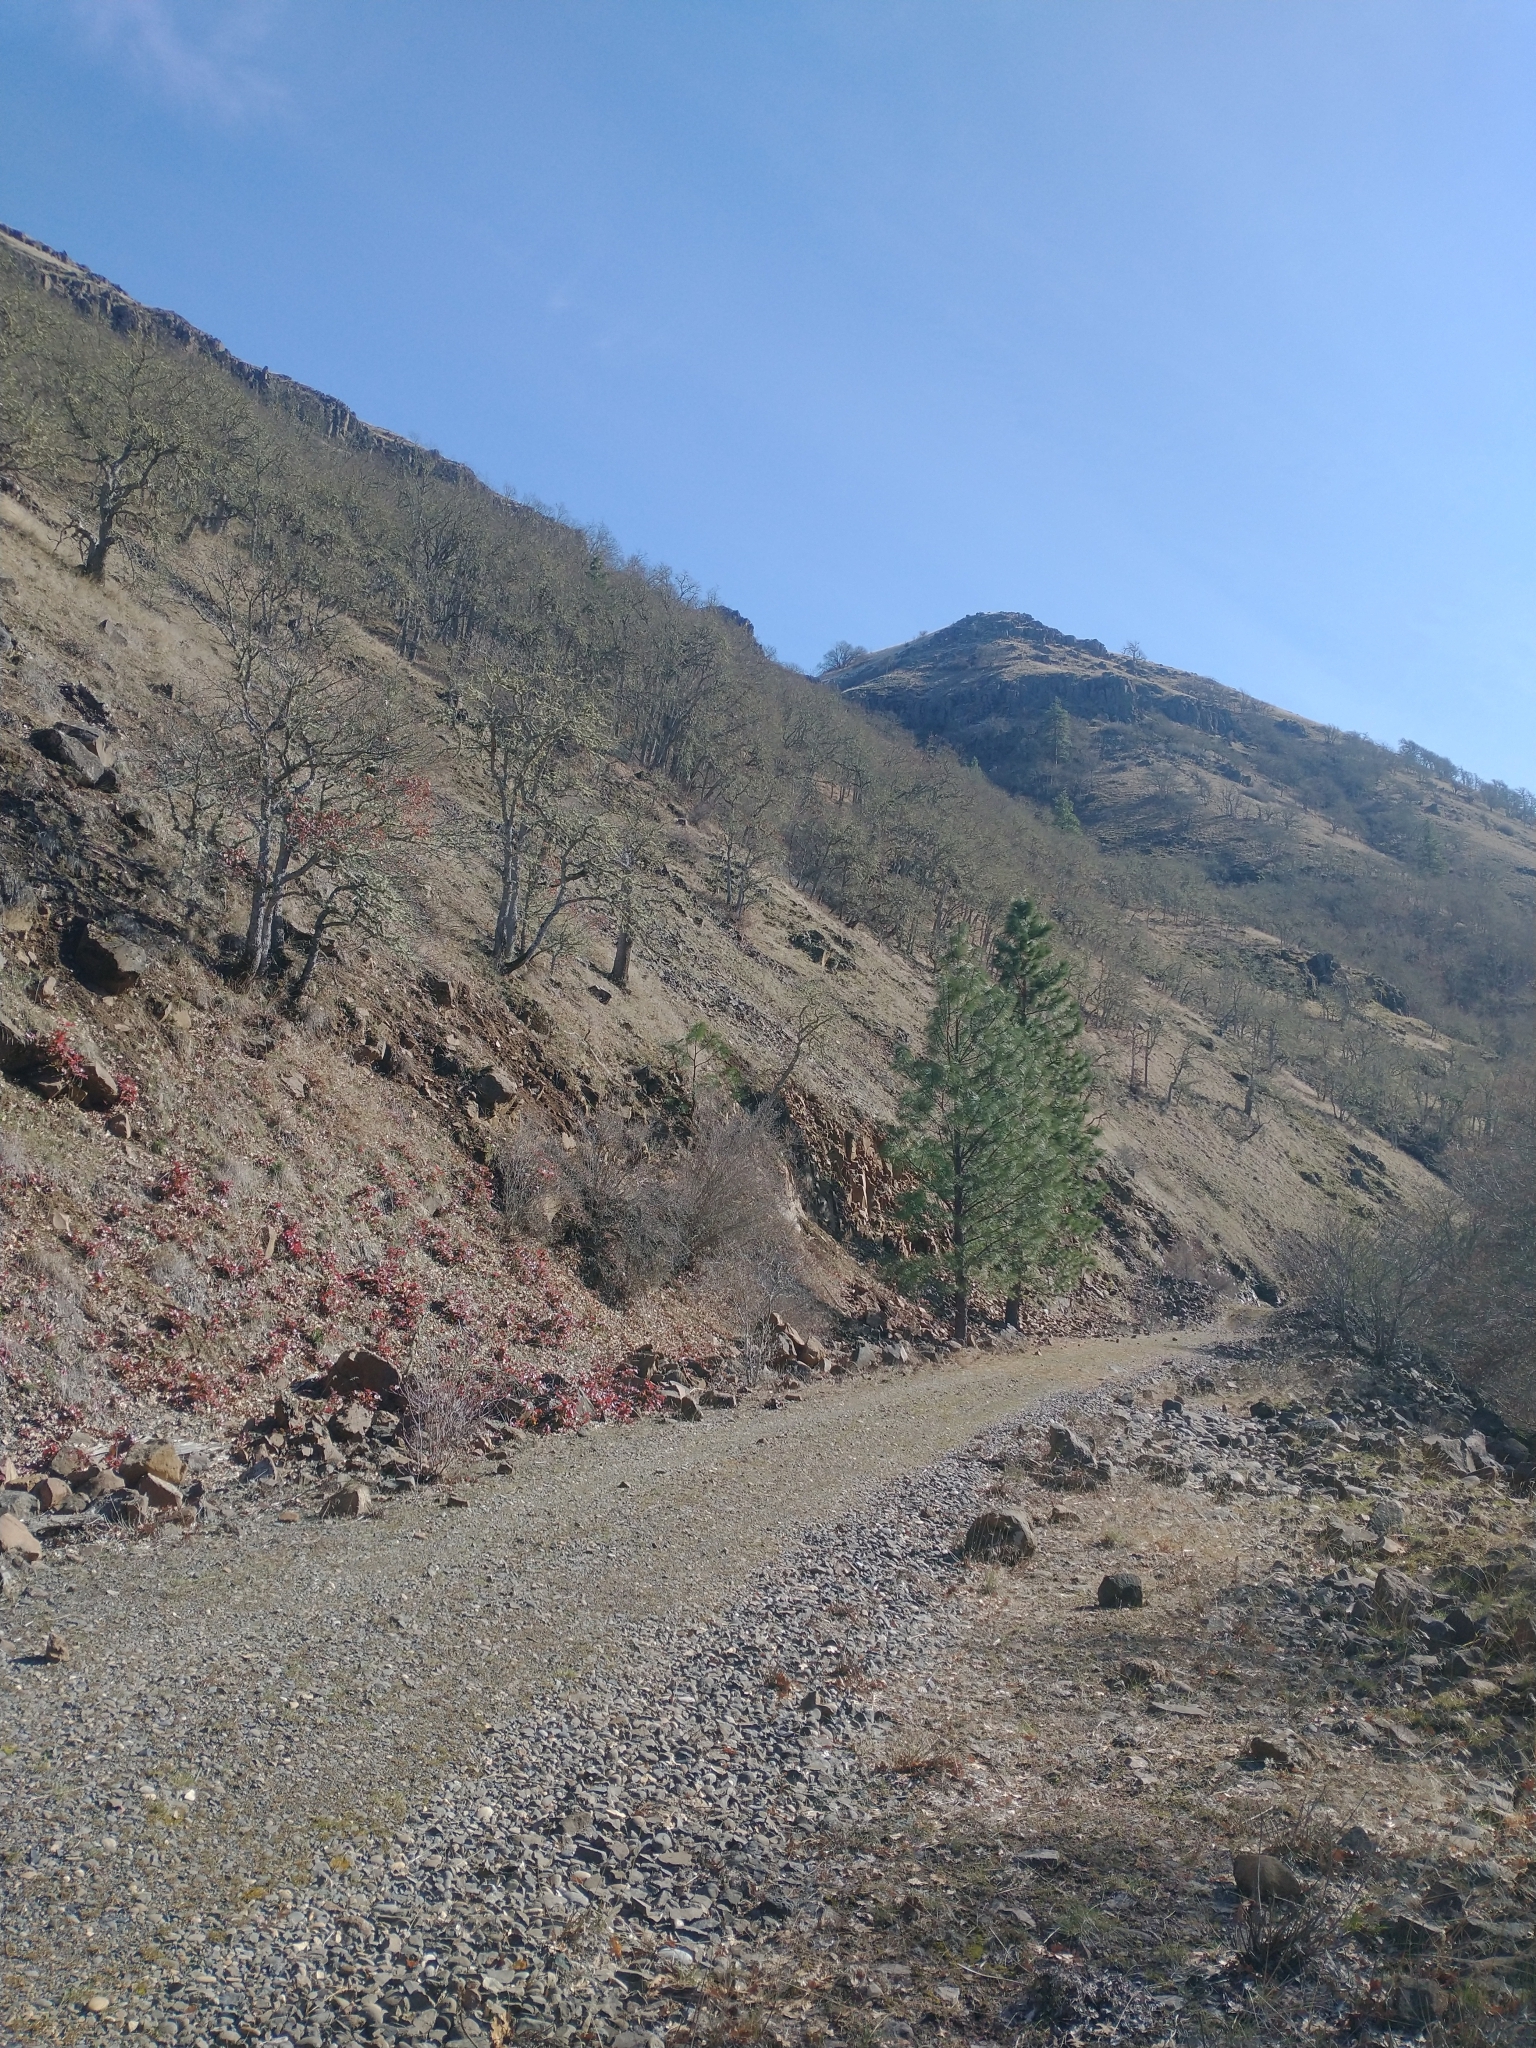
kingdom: Plantae
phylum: Tracheophyta
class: Magnoliopsida
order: Fagales
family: Fagaceae
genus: Quercus
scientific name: Quercus garryana
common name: Garry oak
